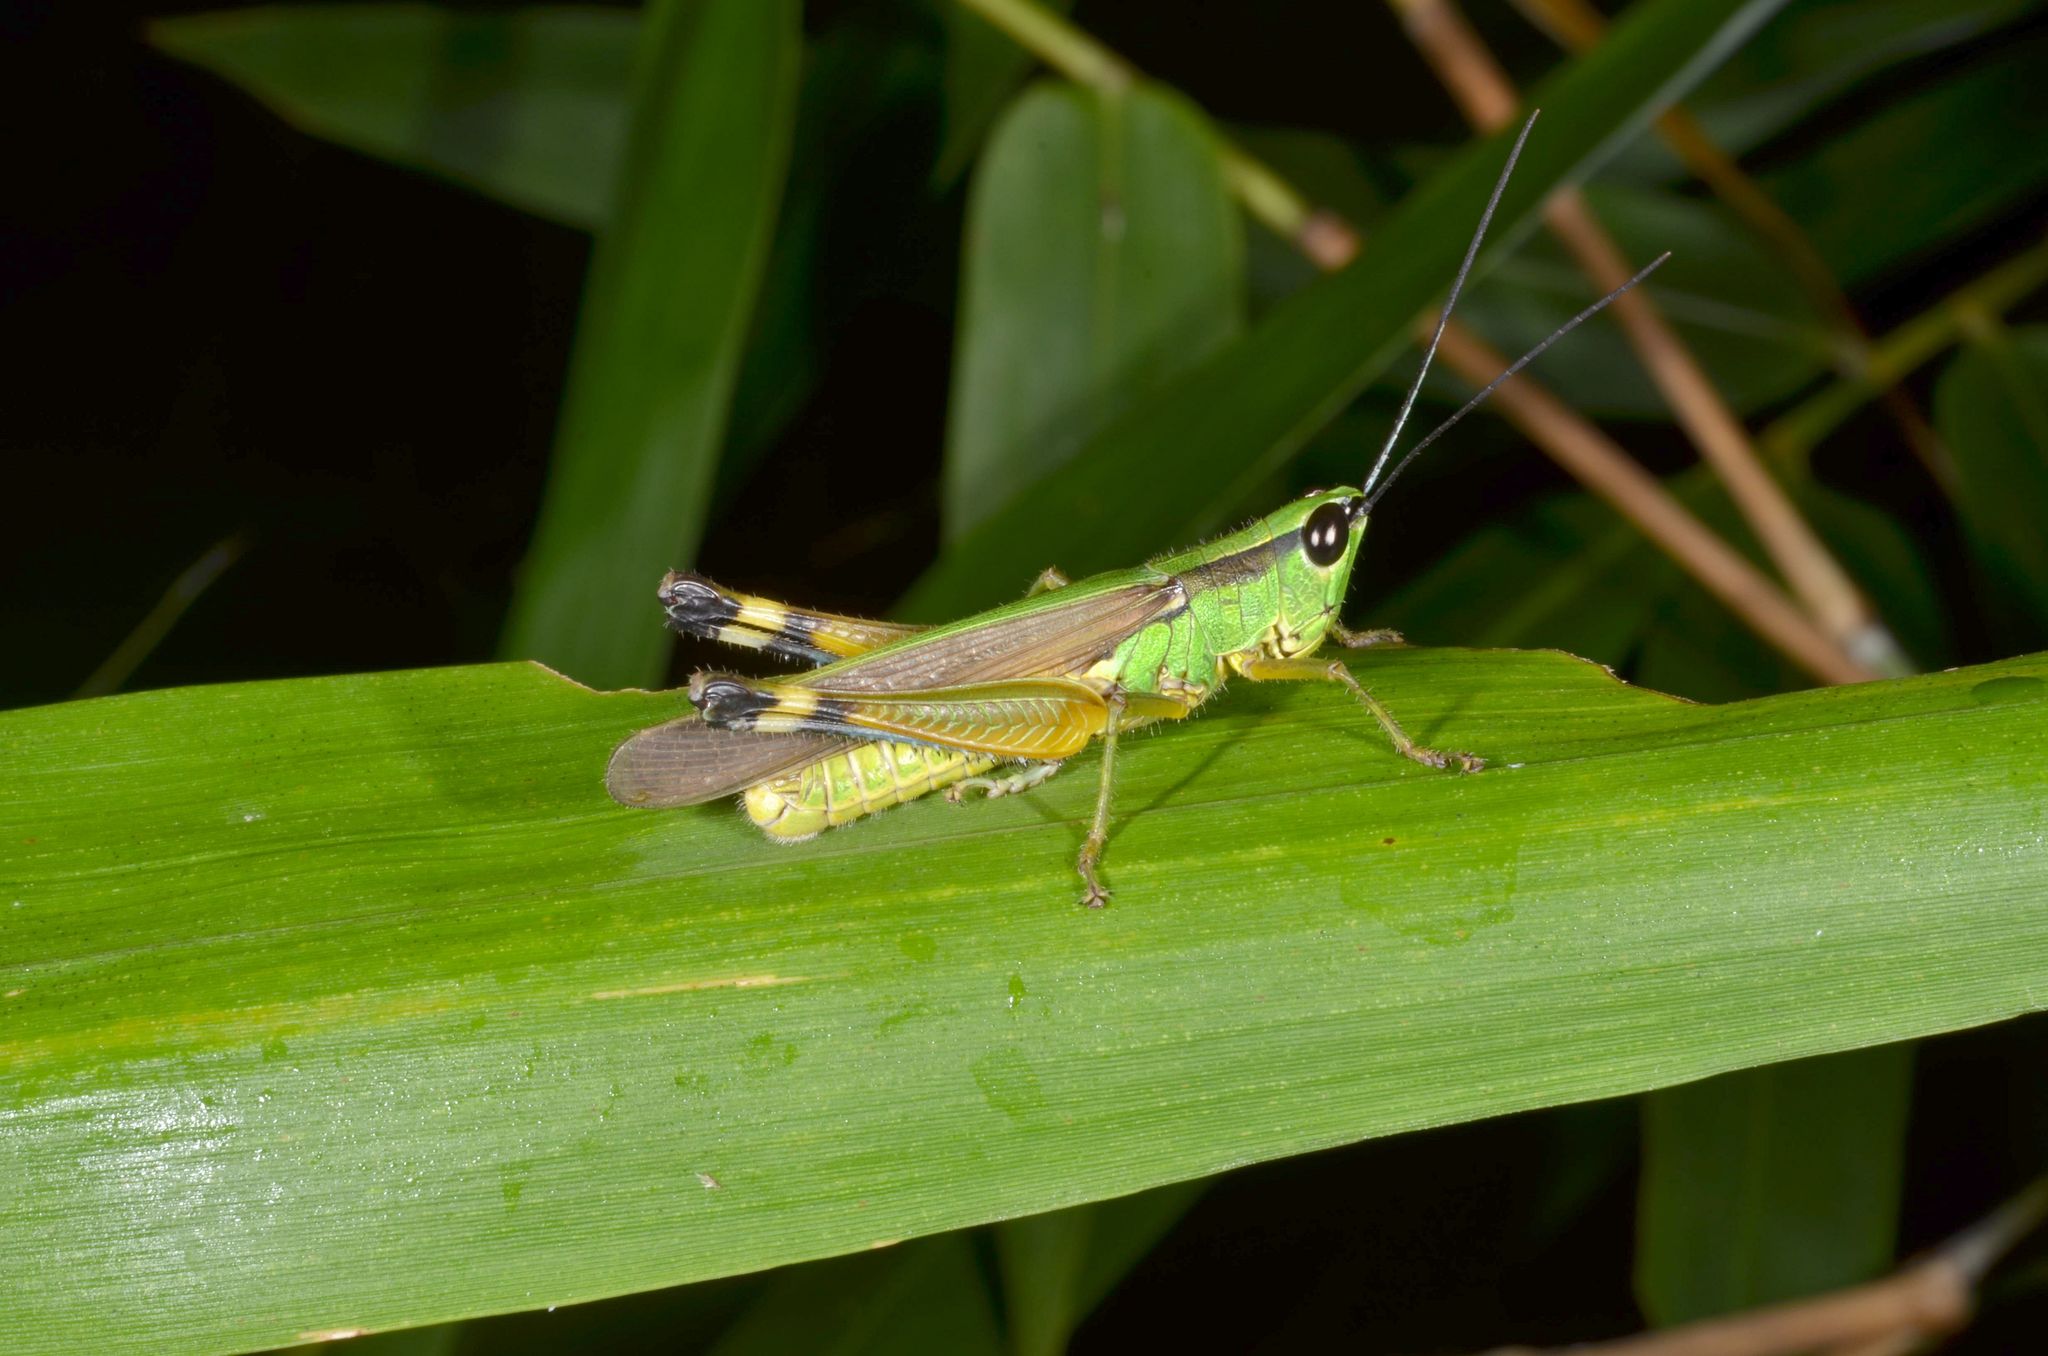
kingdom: Animalia
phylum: Arthropoda
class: Insecta
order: Orthoptera
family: Acrididae
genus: Ceracris
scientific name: Ceracris nigricornis
